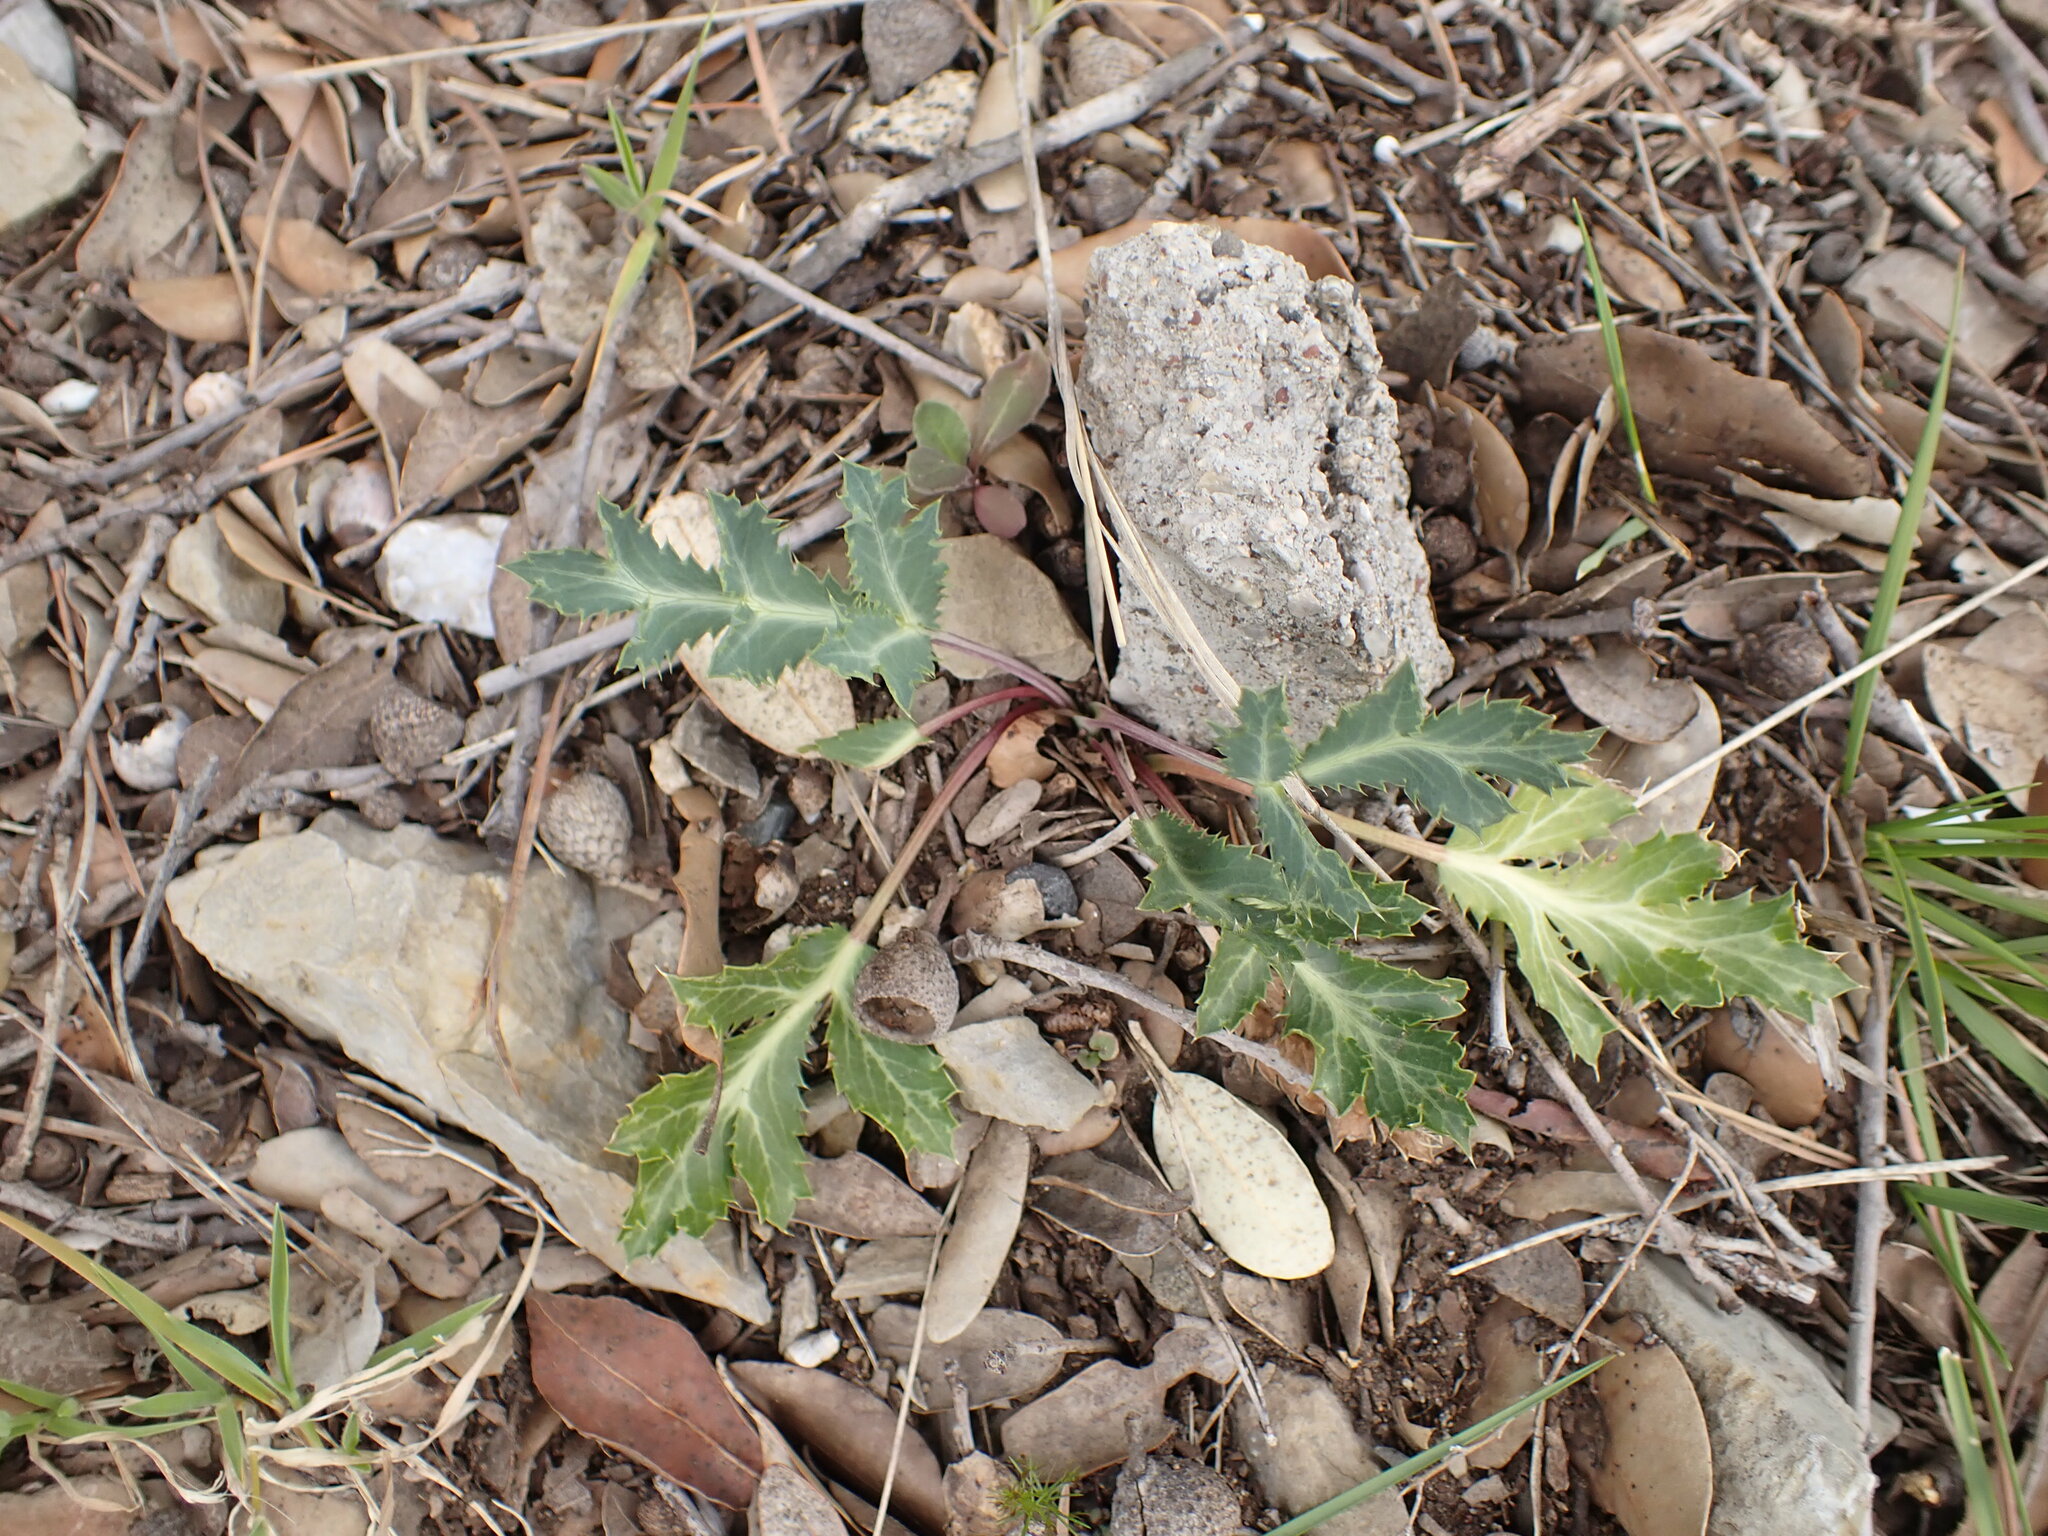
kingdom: Plantae
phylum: Tracheophyta
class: Magnoliopsida
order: Apiales
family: Apiaceae
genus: Eryngium
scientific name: Eryngium campestre
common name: Field eryngo
